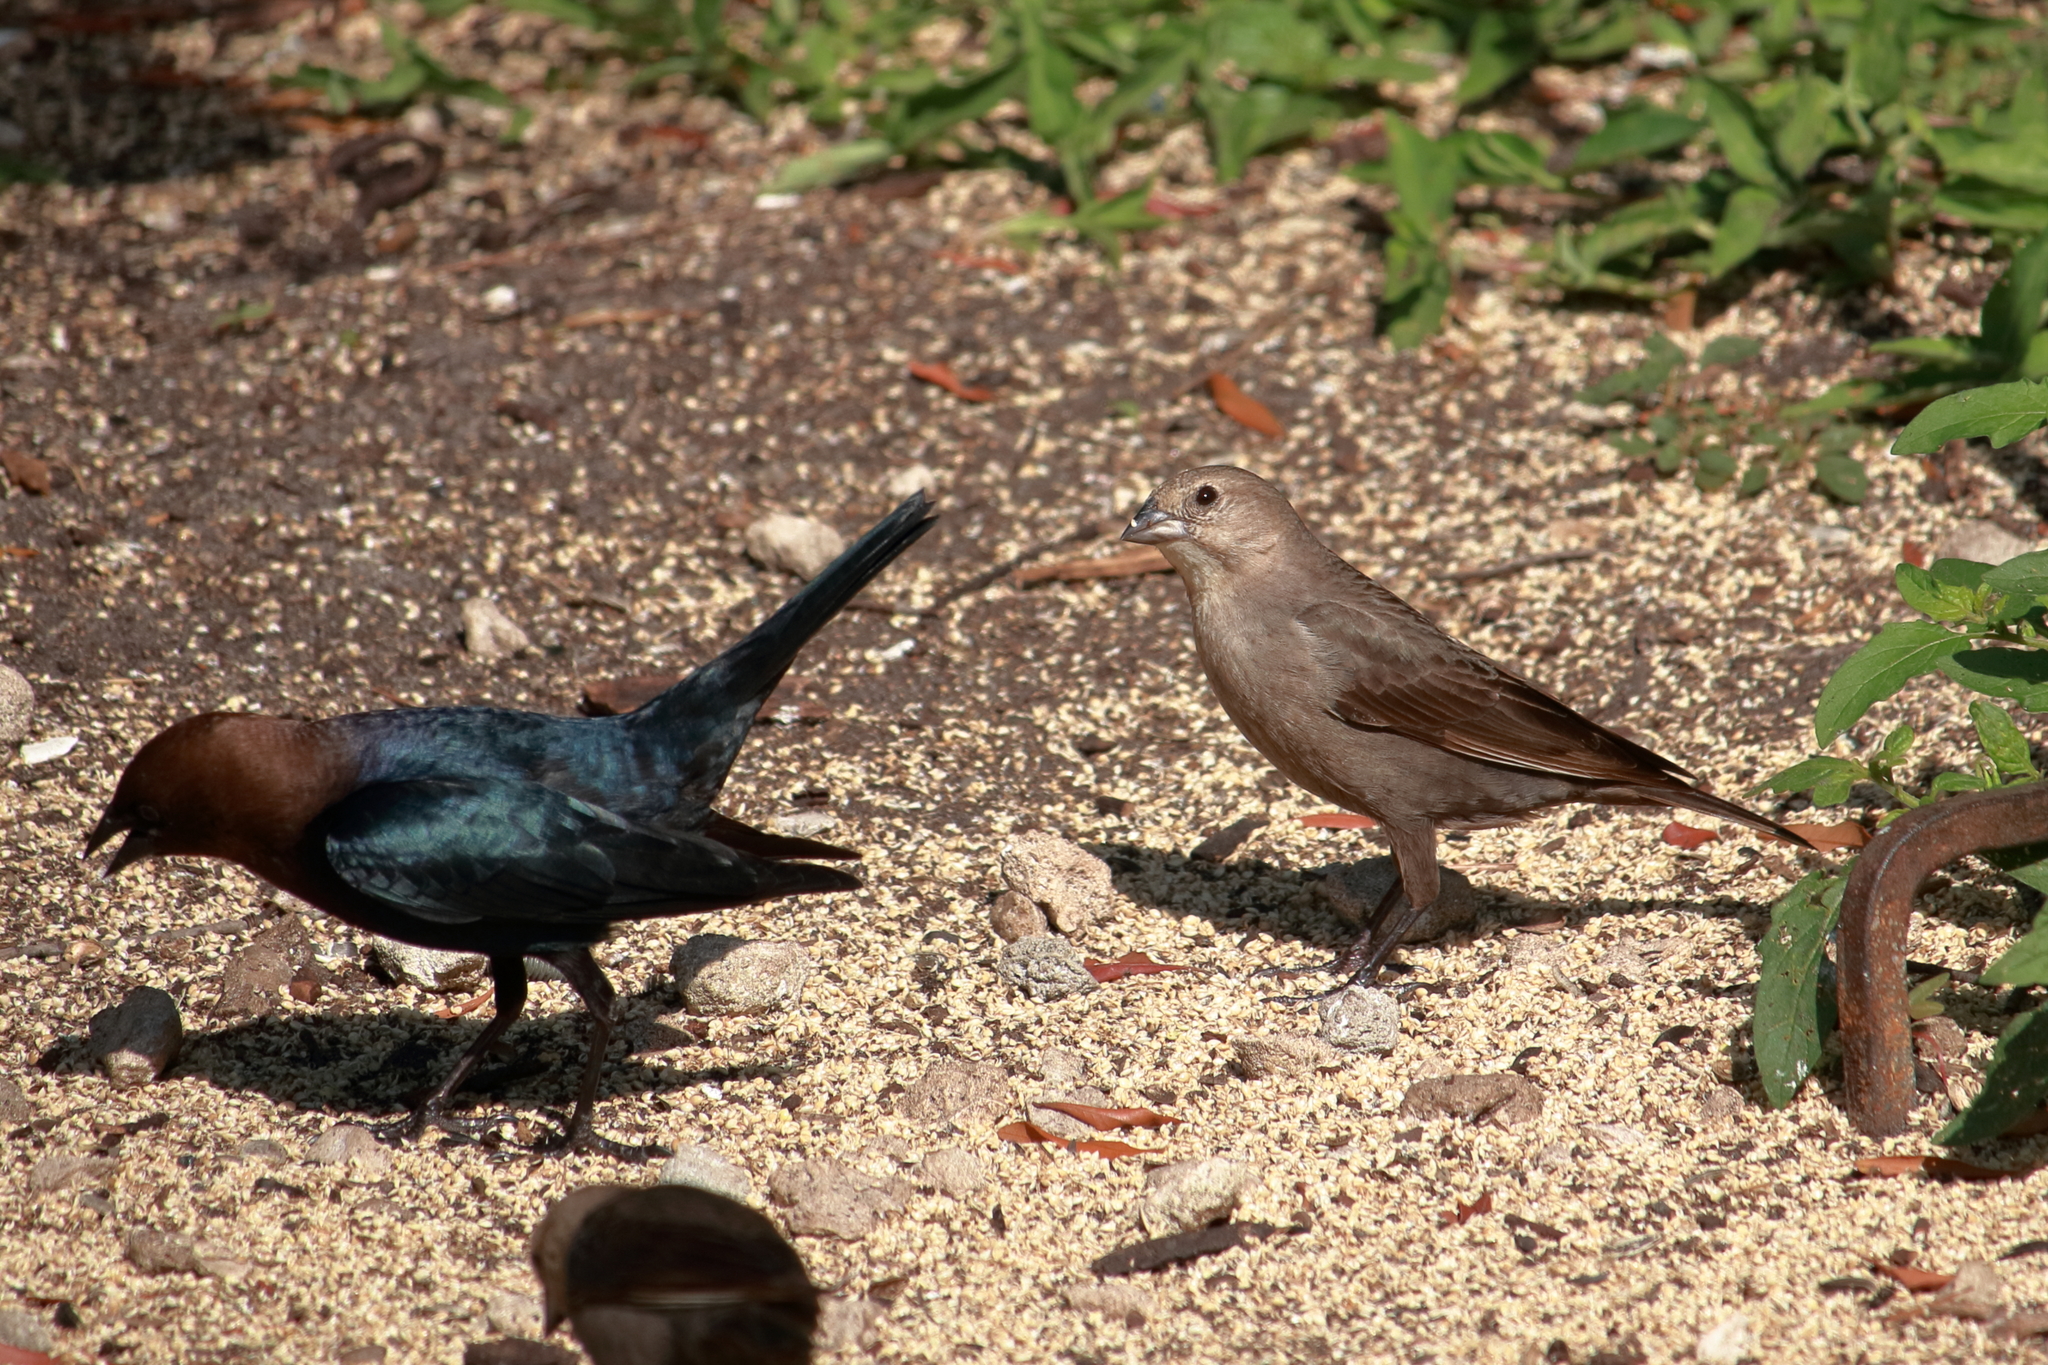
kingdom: Animalia
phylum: Chordata
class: Aves
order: Passeriformes
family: Icteridae
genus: Molothrus
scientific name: Molothrus ater
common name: Brown-headed cowbird
